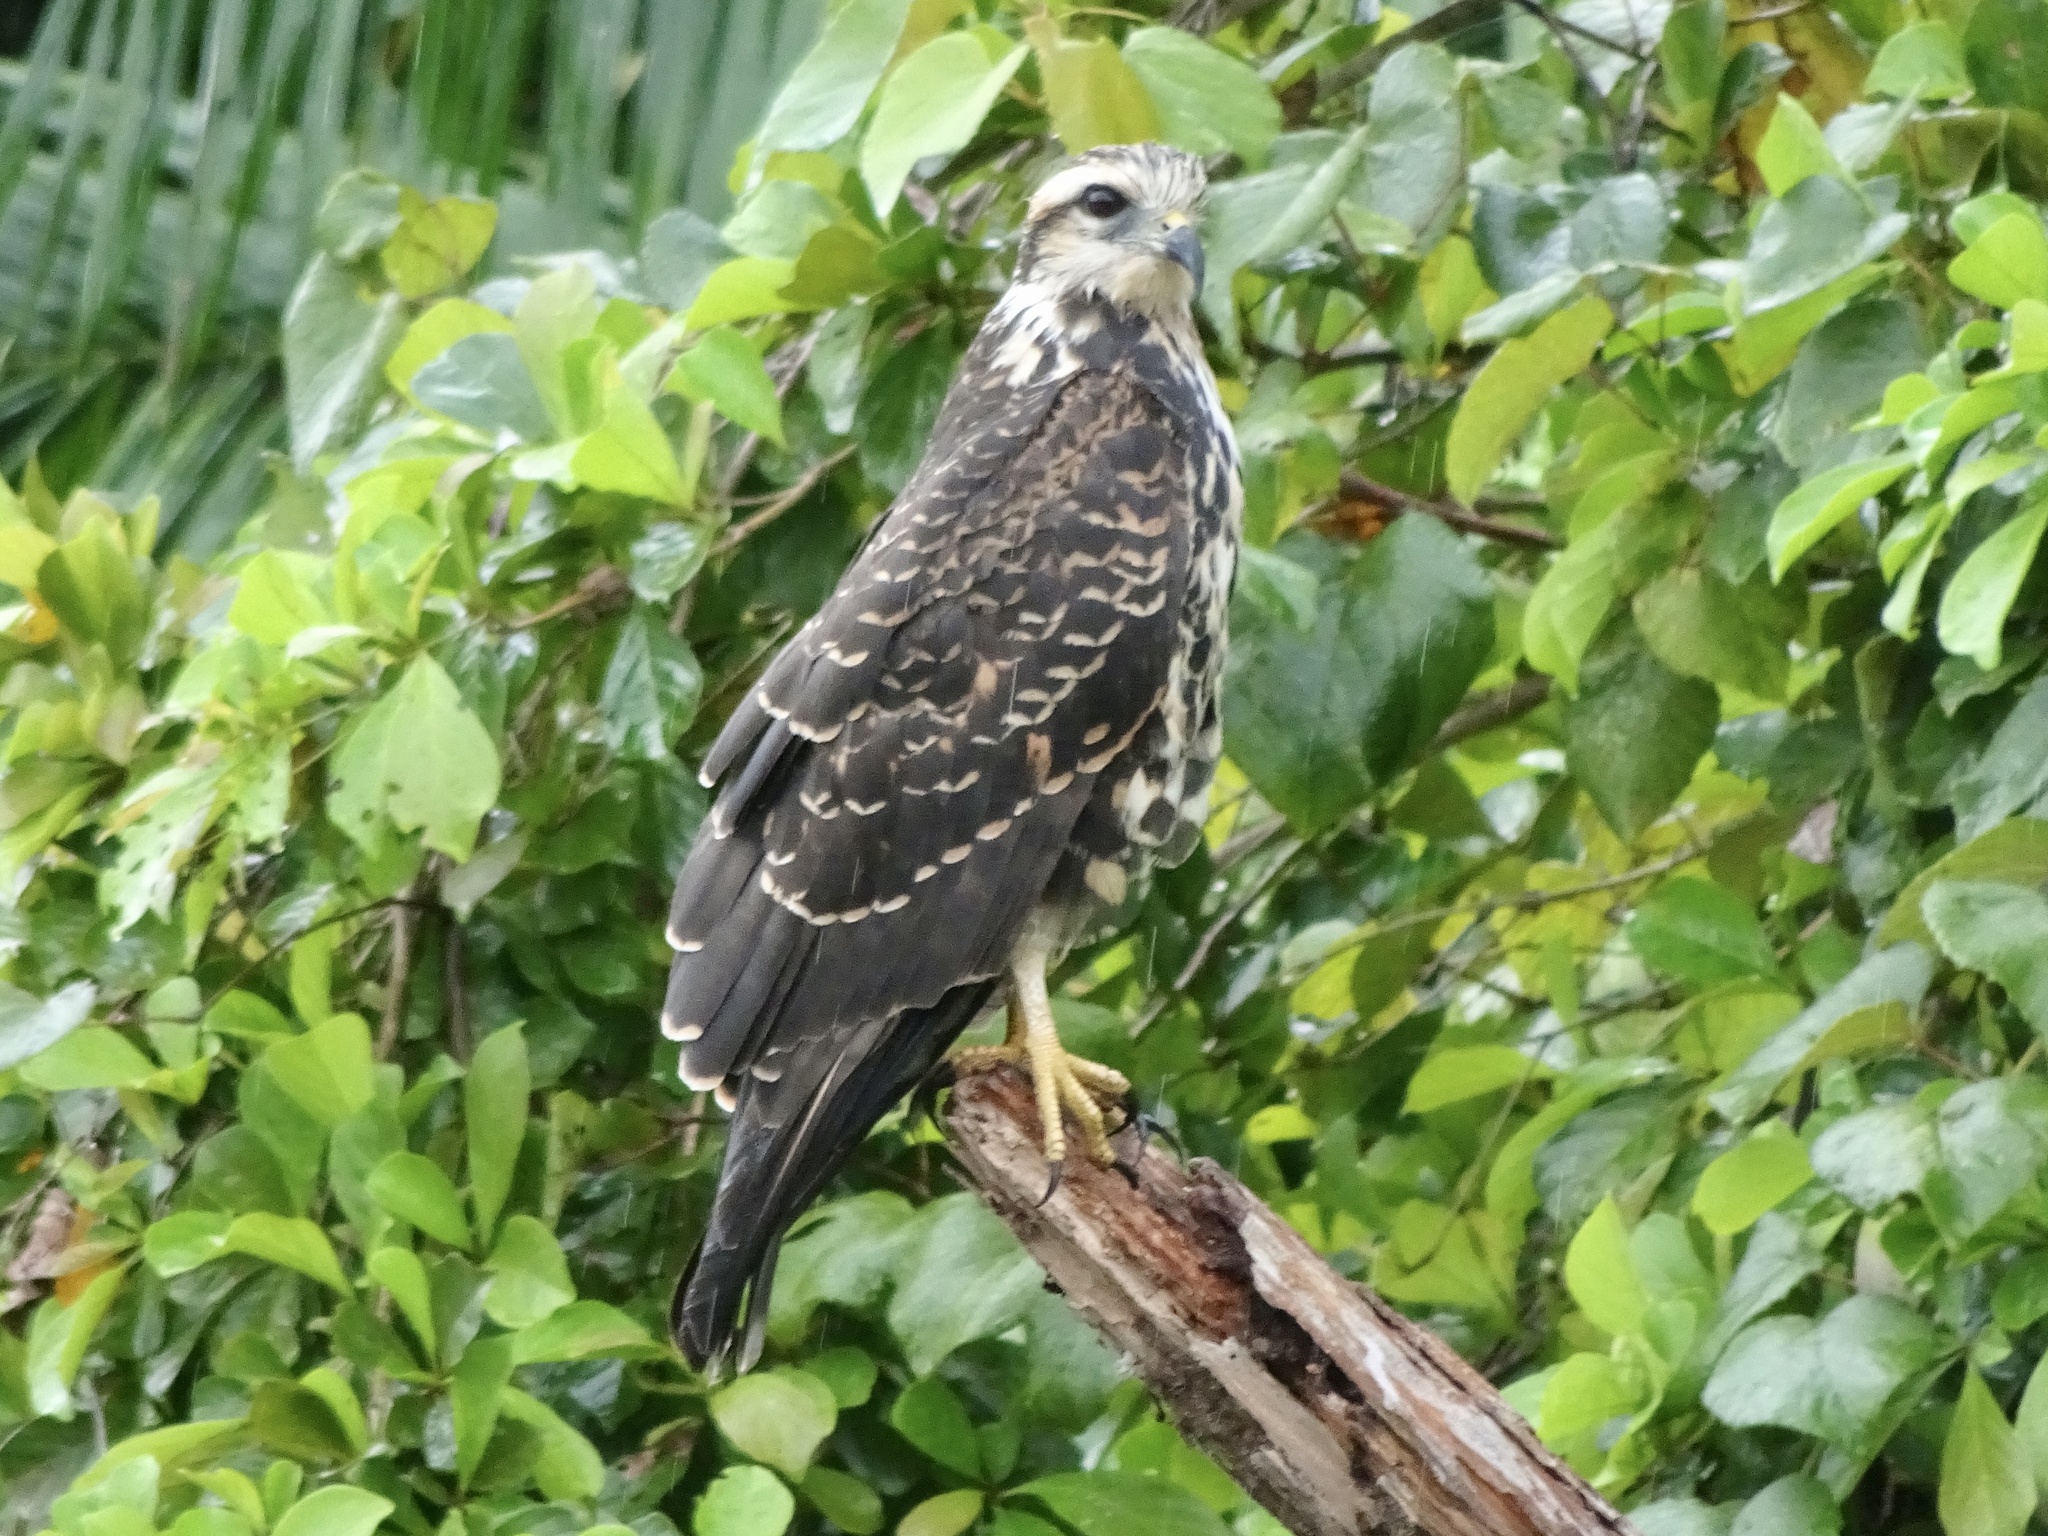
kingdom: Animalia
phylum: Chordata
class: Aves
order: Accipitriformes
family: Accipitridae
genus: Rostrhamus
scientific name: Rostrhamus sociabilis
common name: Snail kite
